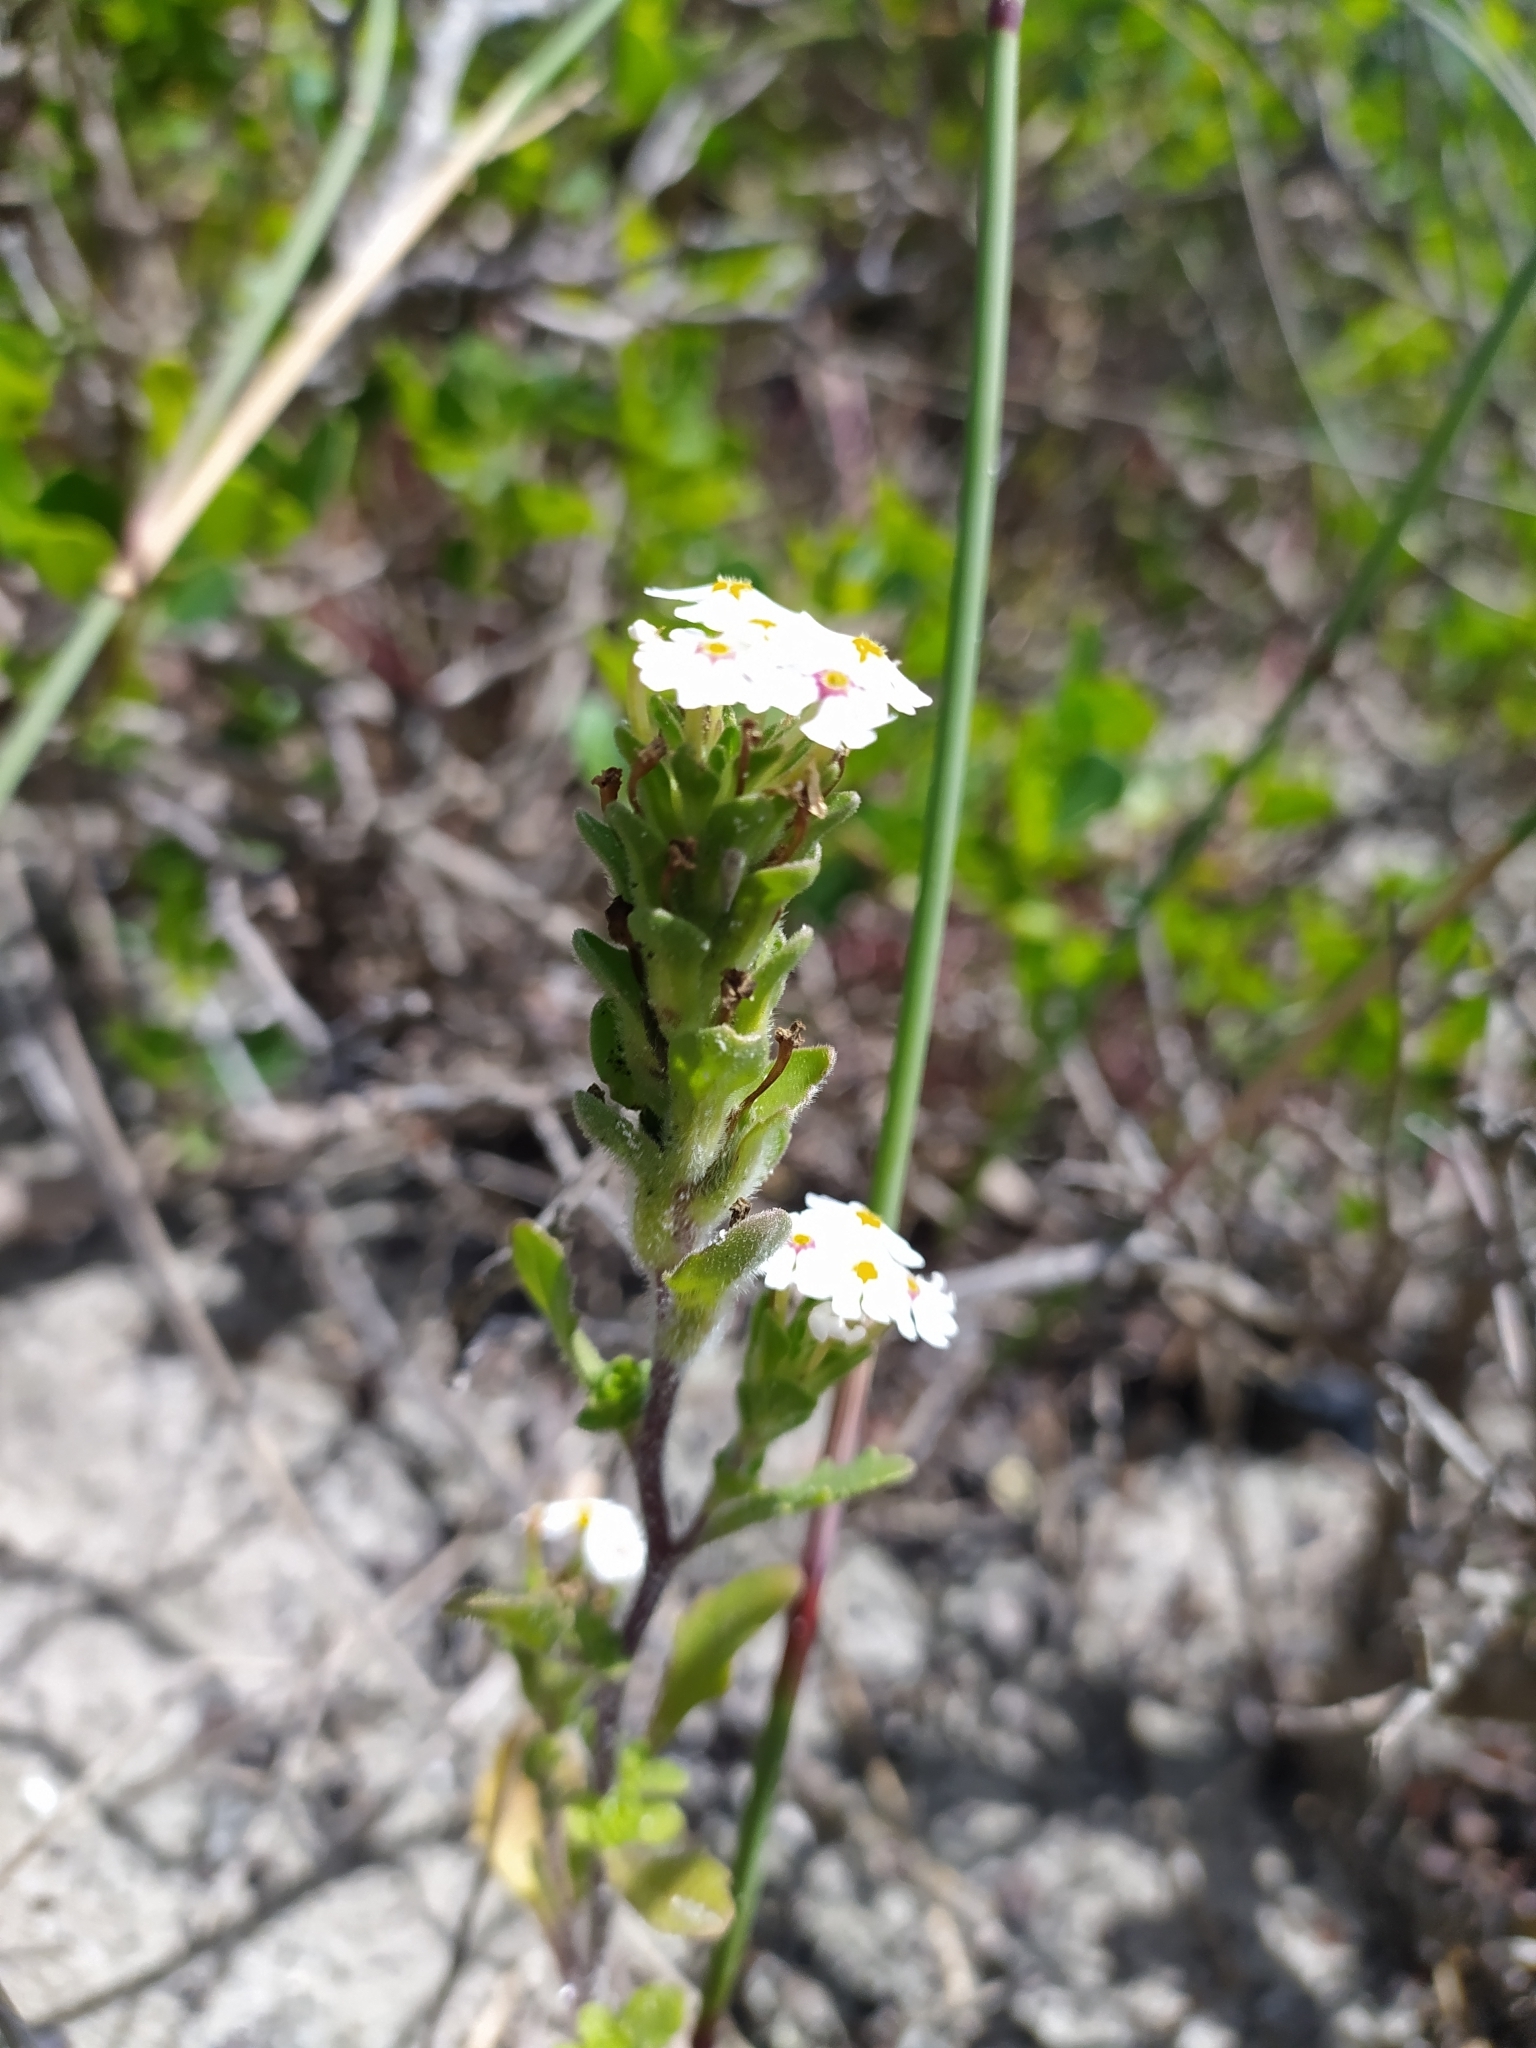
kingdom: Plantae
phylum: Tracheophyta
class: Magnoliopsida
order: Lamiales
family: Scrophulariaceae
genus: Zaluzianskya
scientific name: Zaluzianskya villosa
